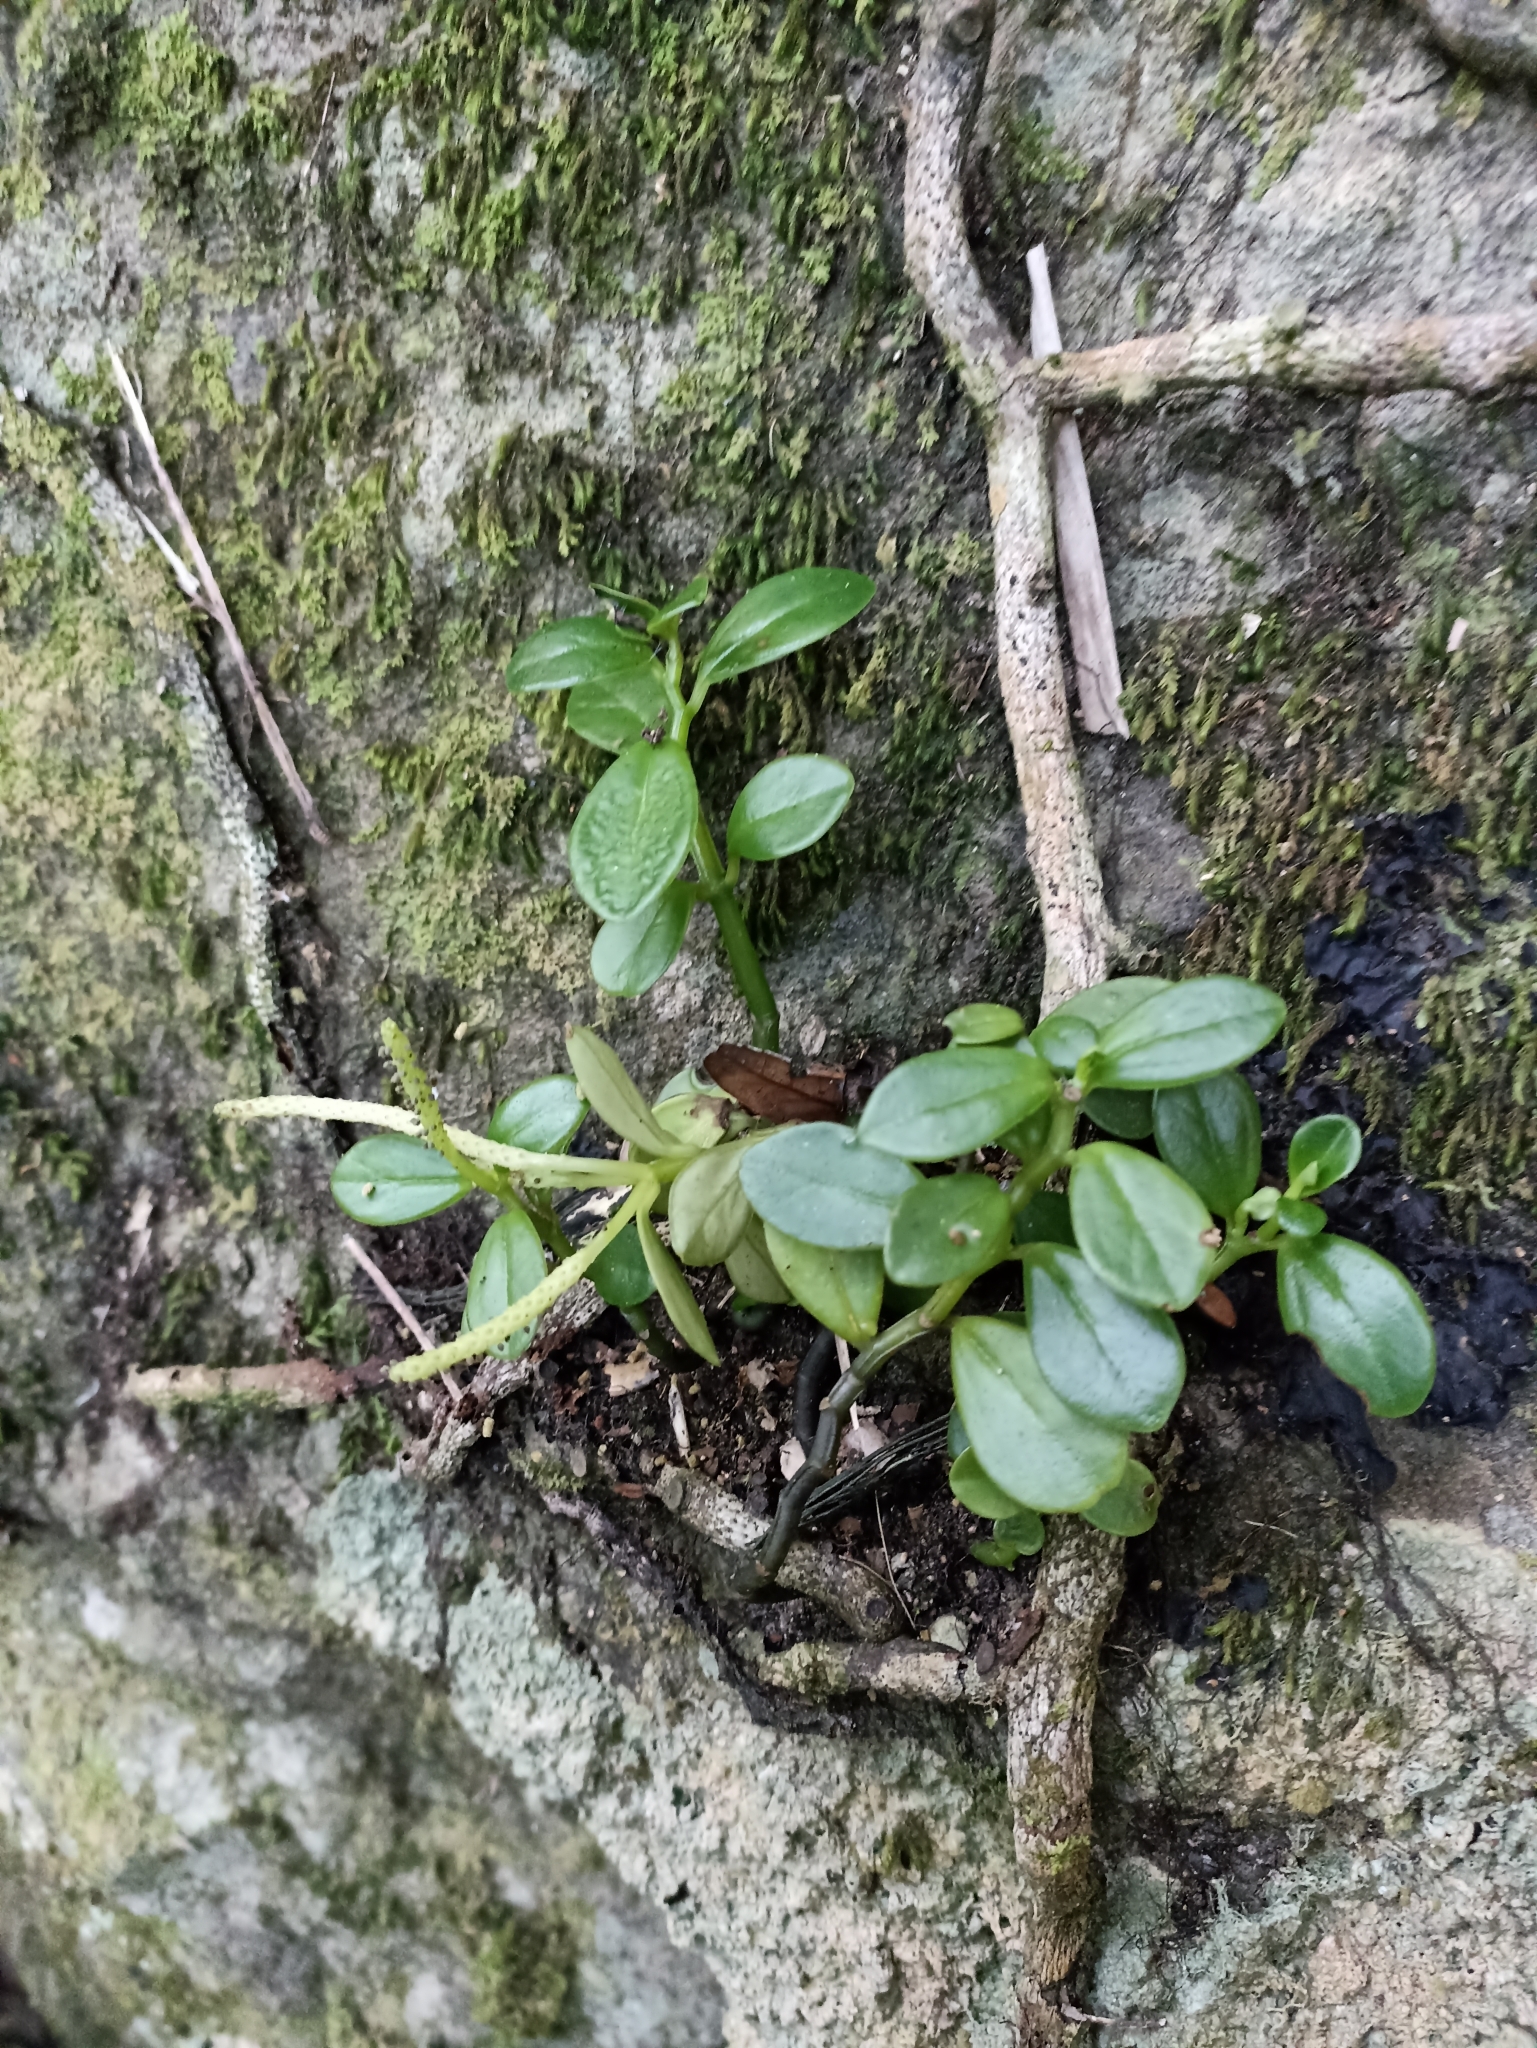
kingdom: Plantae
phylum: Tracheophyta
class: Magnoliopsida
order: Piperales
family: Piperaceae
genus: Peperomia
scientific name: Peperomia urvilleana
